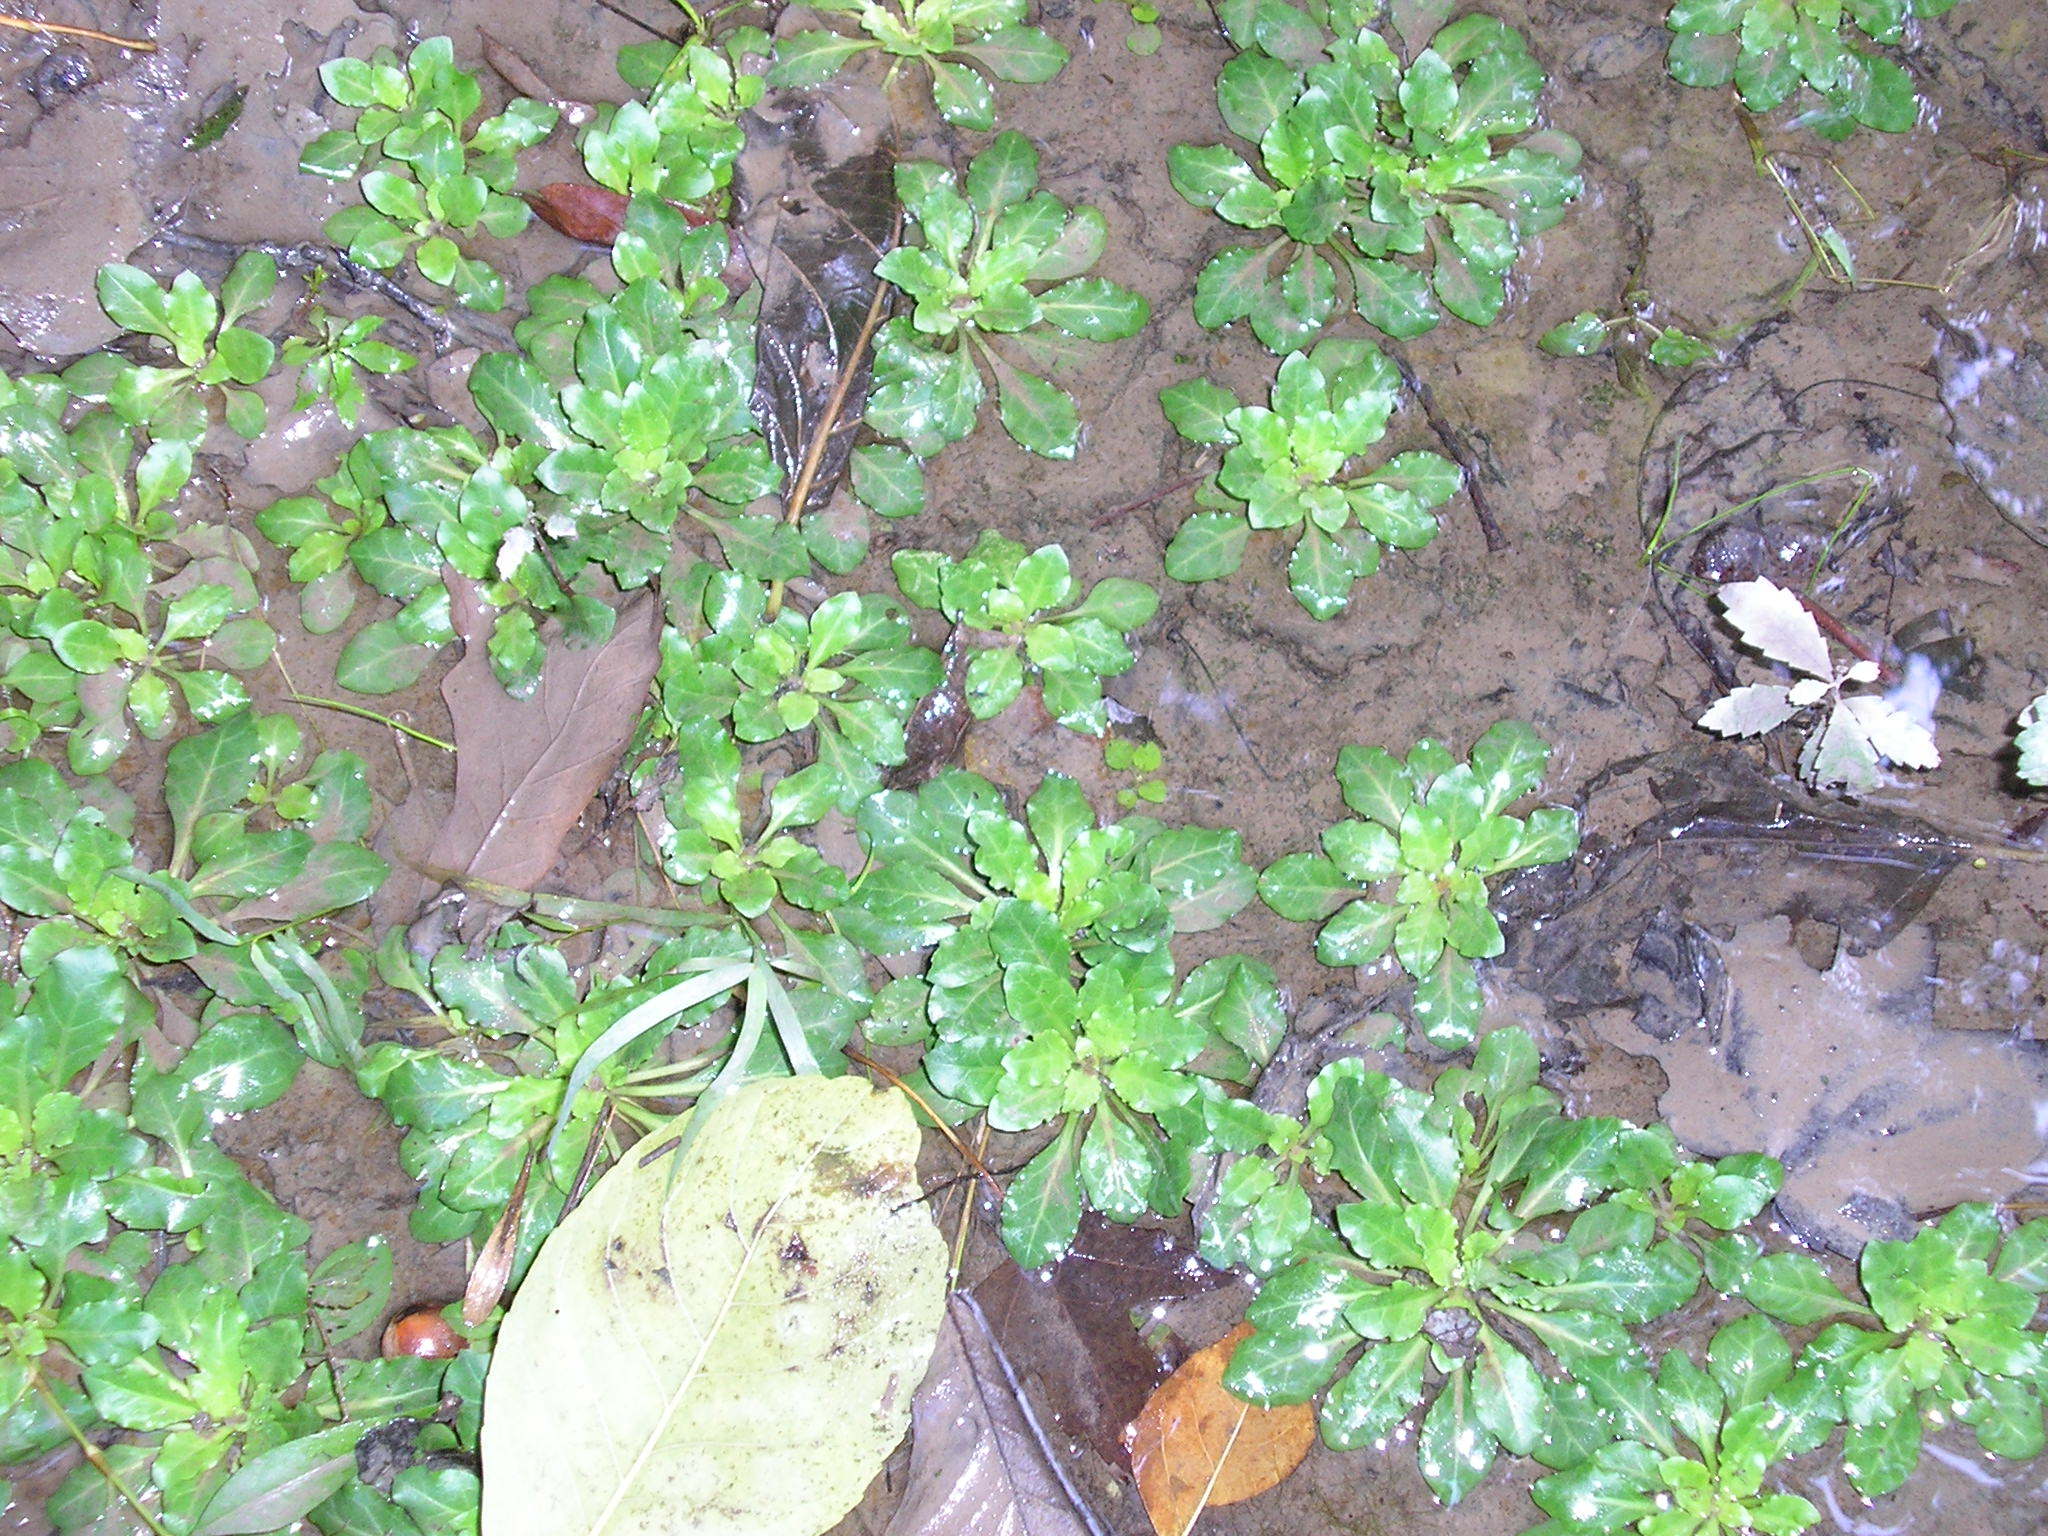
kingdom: Plantae
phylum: Tracheophyta
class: Magnoliopsida
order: Ericales
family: Primulaceae
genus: Samolus
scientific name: Samolus parviflorus
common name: False water pimpernel
